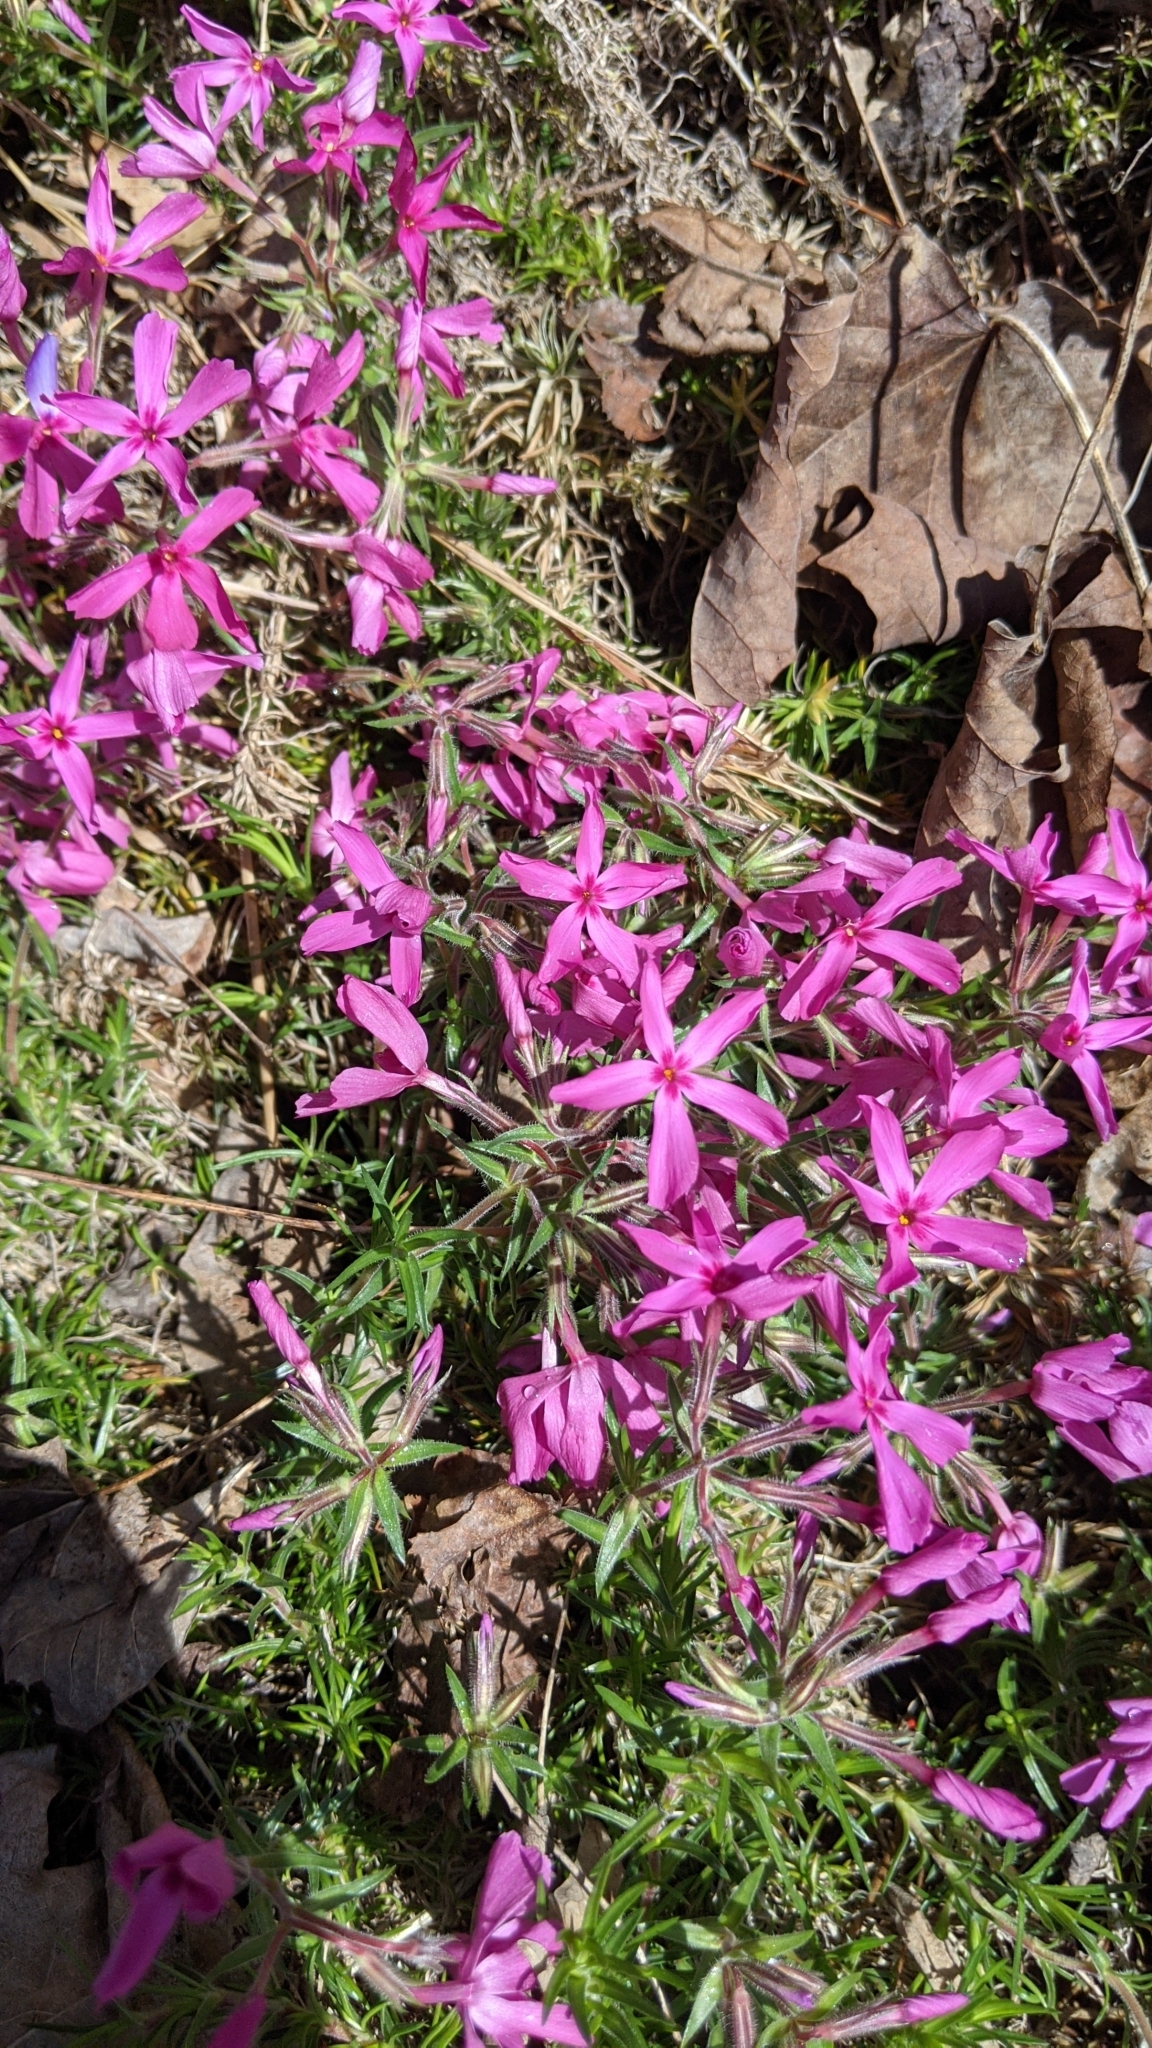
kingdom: Plantae
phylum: Tracheophyta
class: Magnoliopsida
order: Ericales
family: Polemoniaceae
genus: Phlox
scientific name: Phlox subulata
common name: Moss phlox
